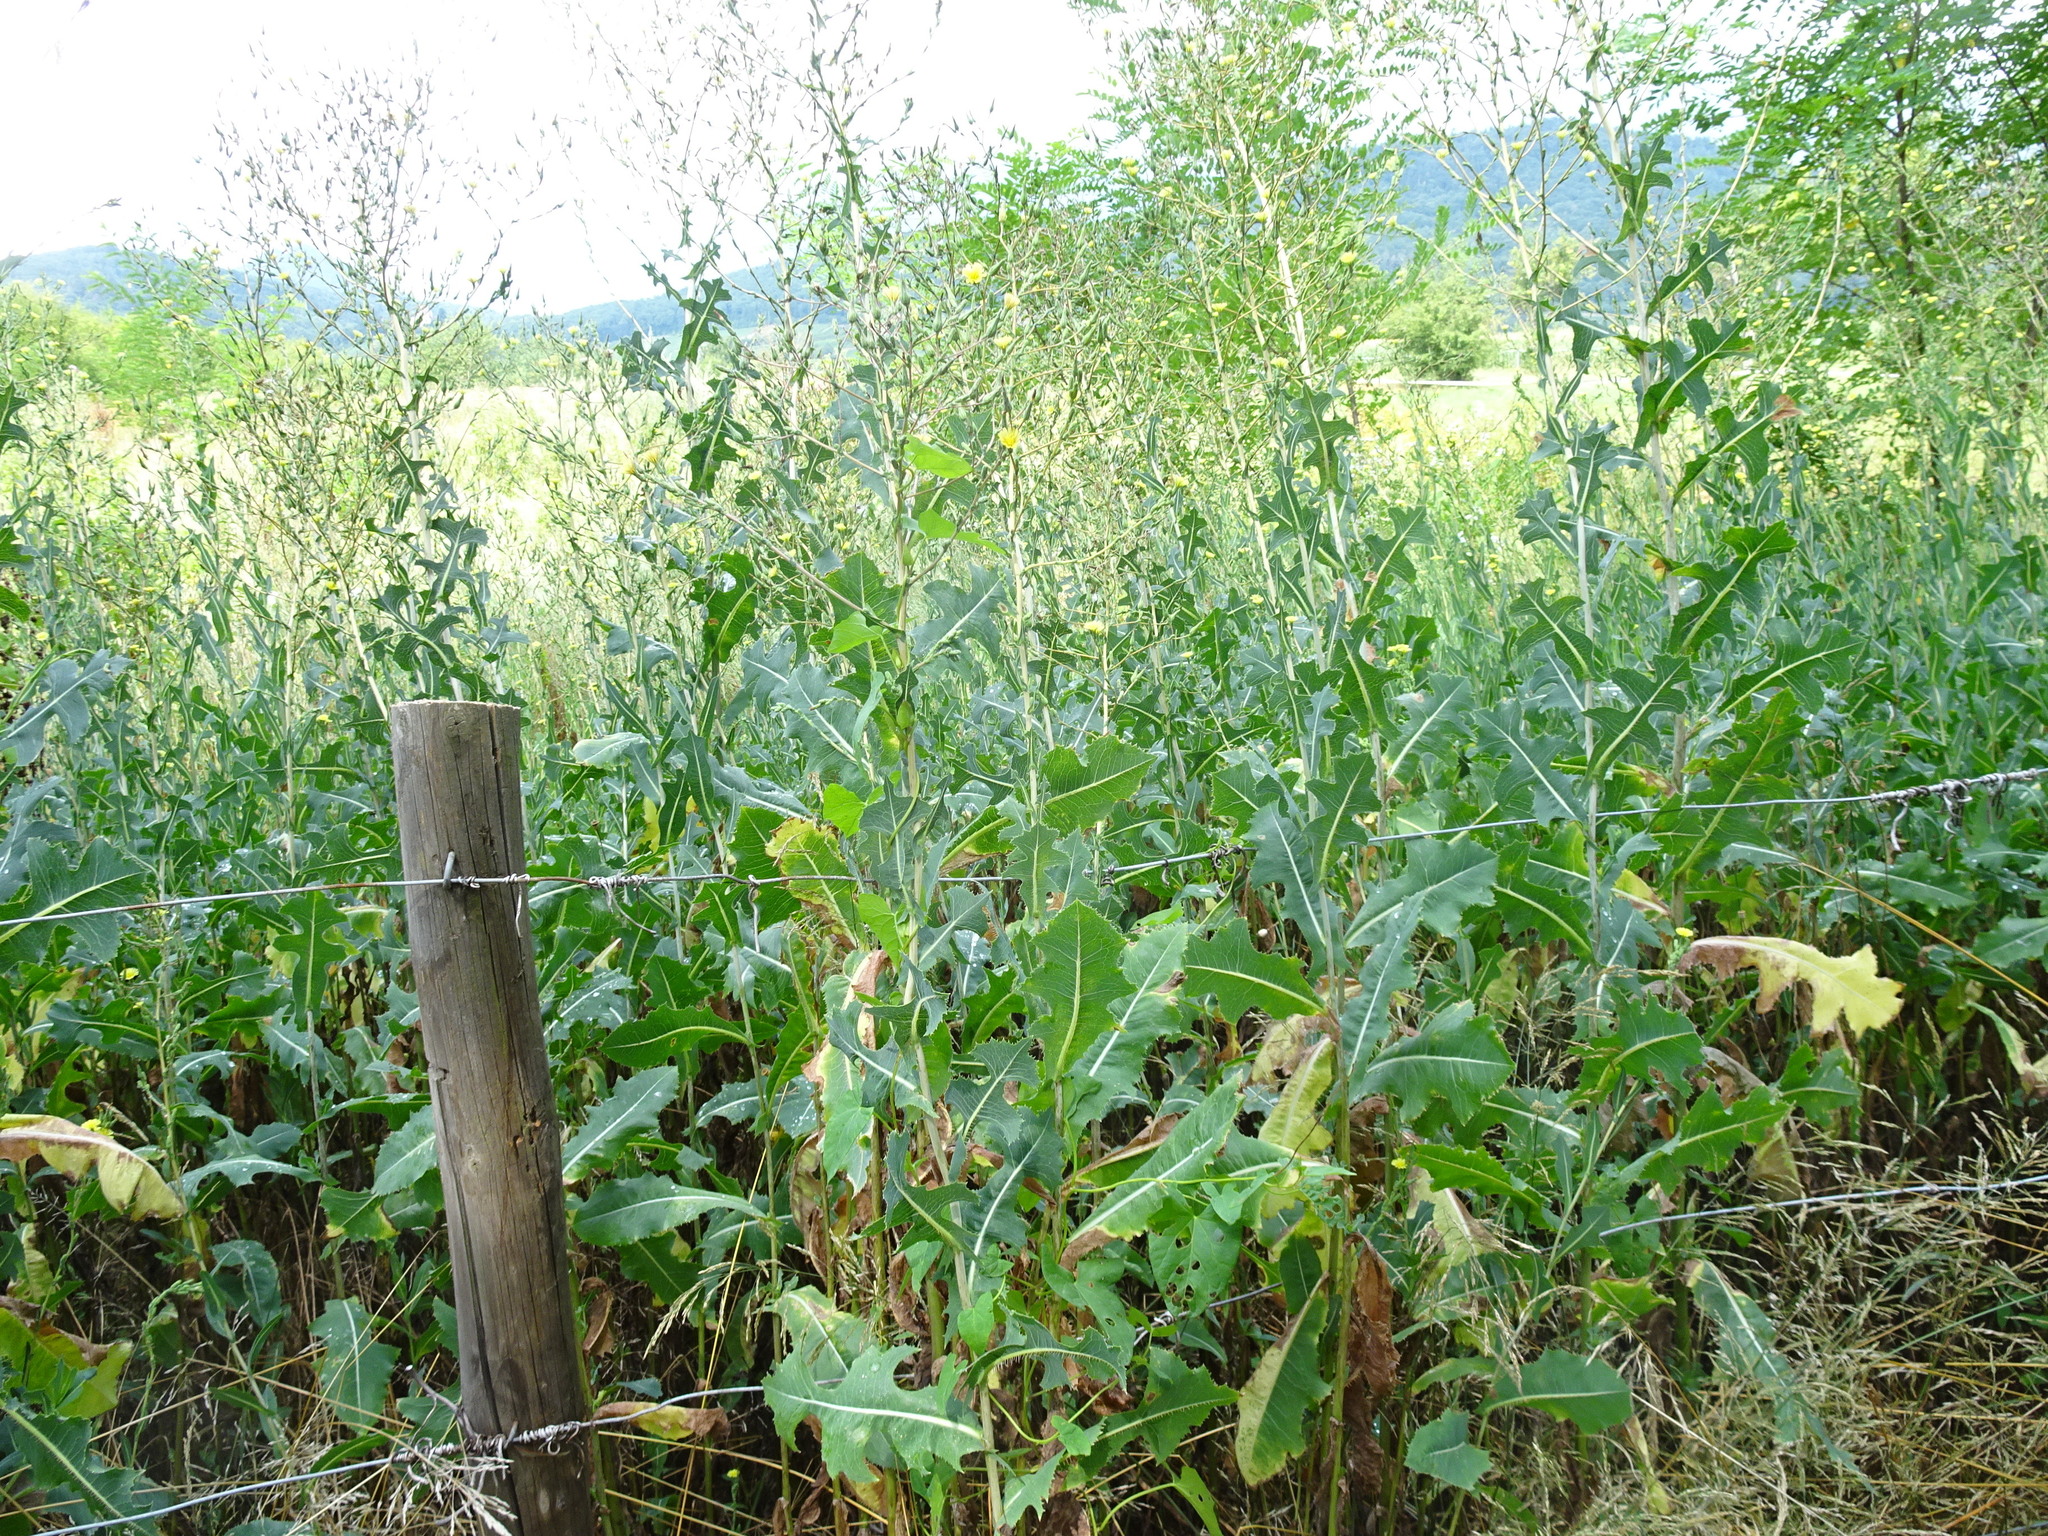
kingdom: Plantae
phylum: Tracheophyta
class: Magnoliopsida
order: Asterales
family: Asteraceae
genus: Lactuca
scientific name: Lactuca serriola
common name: Prickly lettuce
